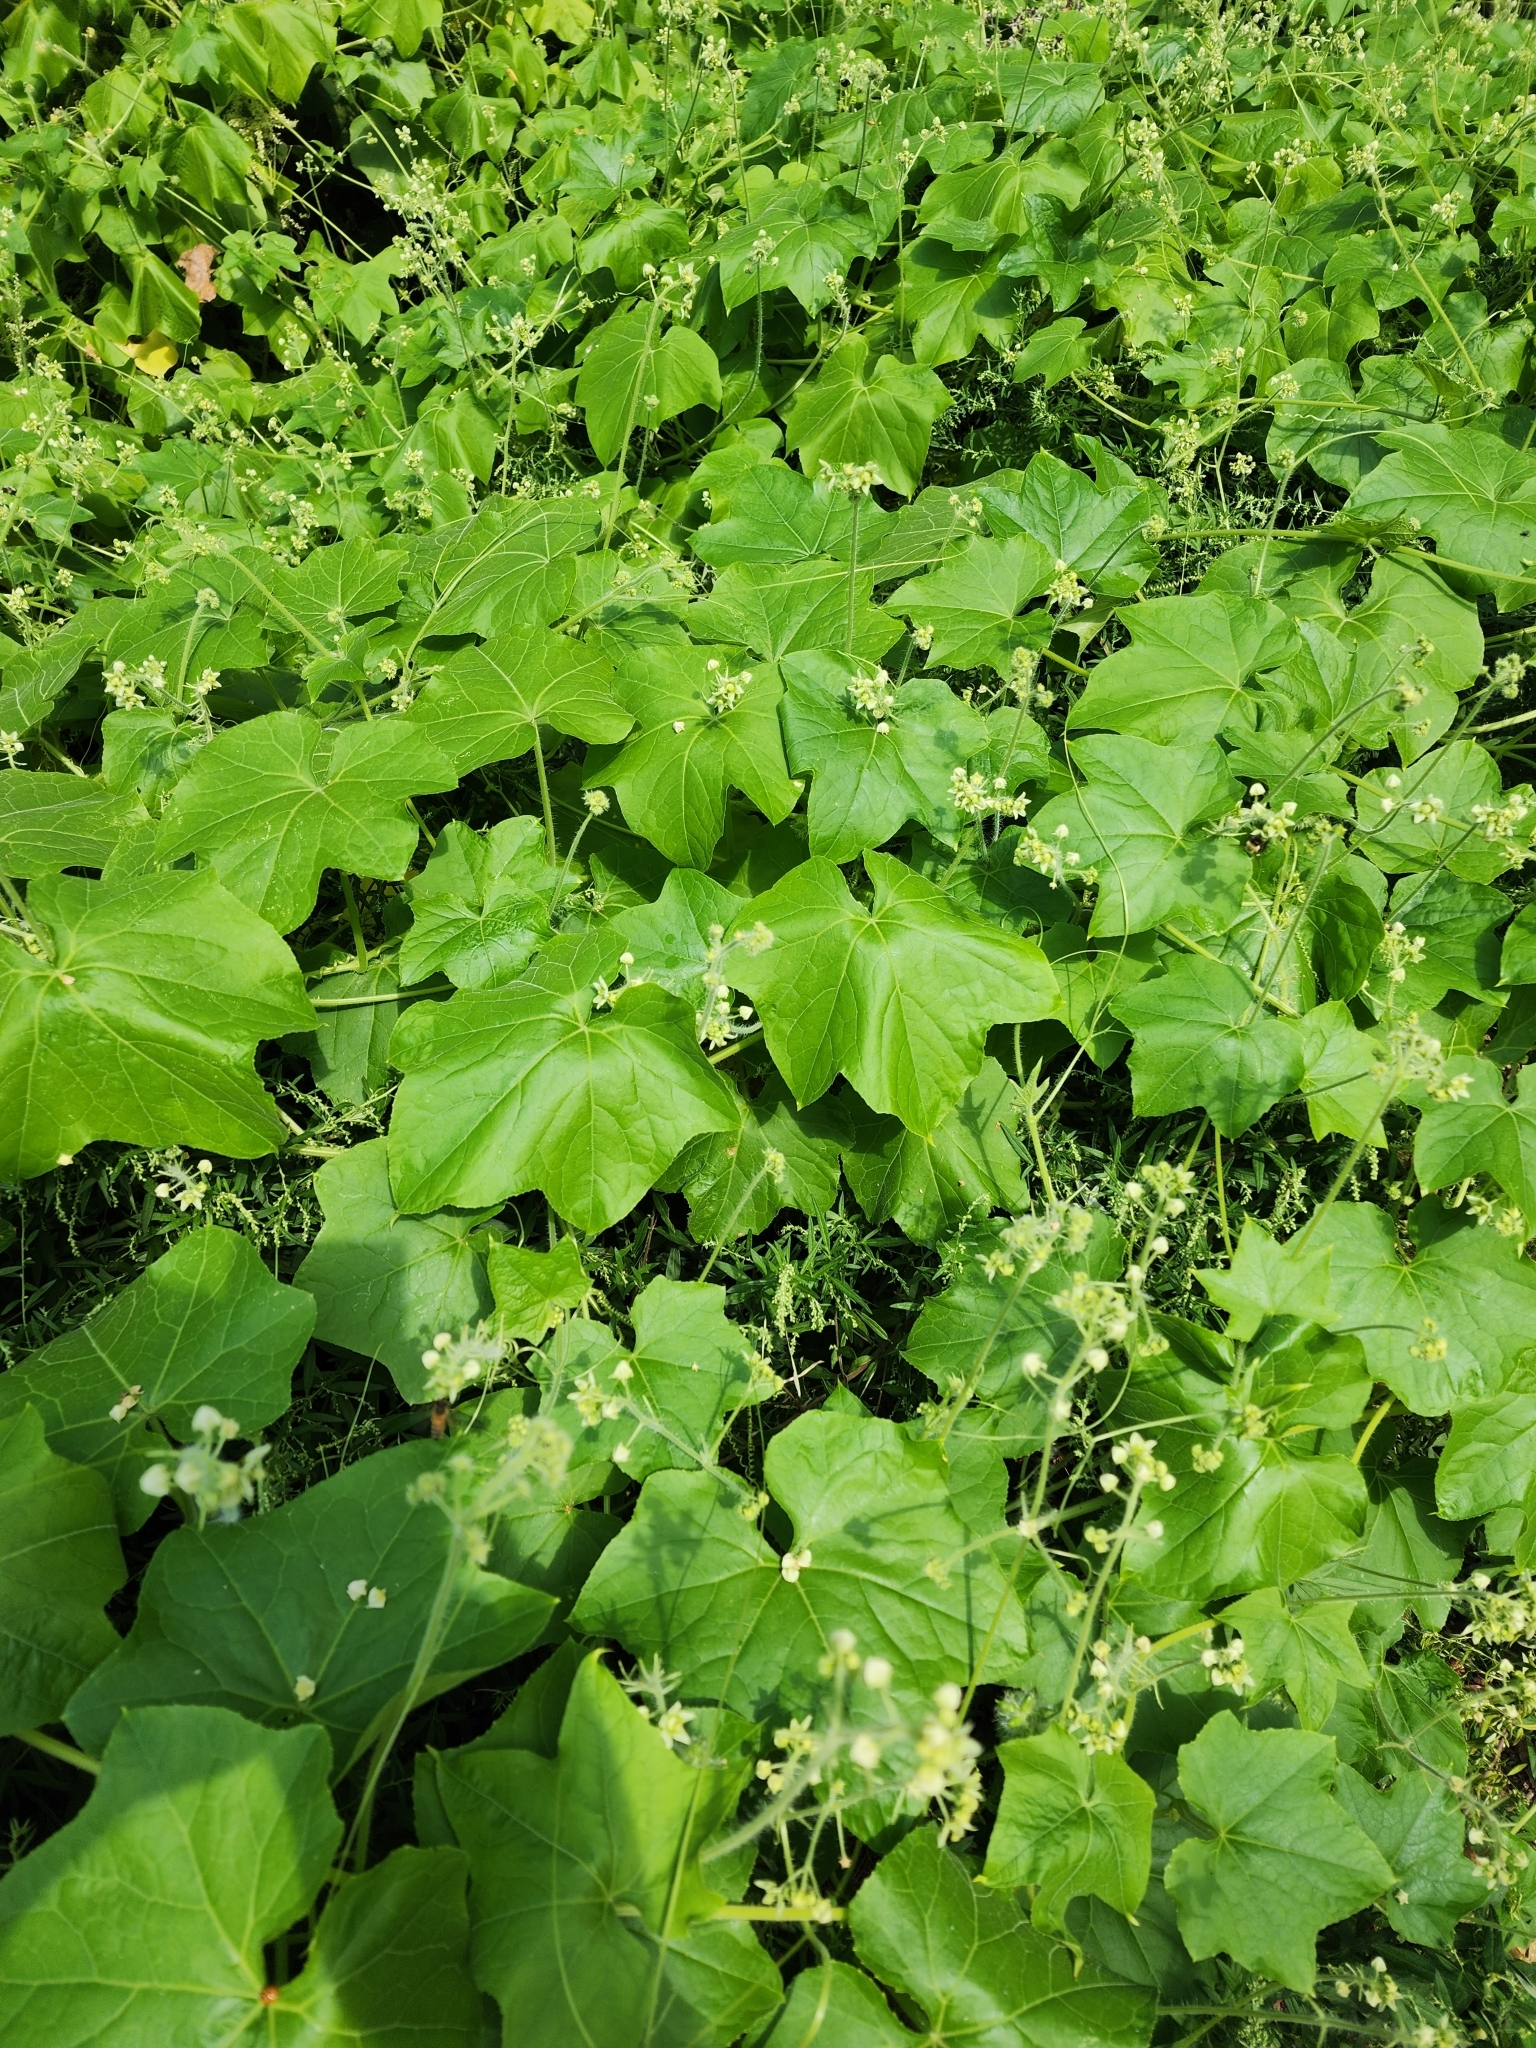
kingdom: Plantae
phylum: Tracheophyta
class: Magnoliopsida
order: Cucurbitales
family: Cucurbitaceae
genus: Sicyos
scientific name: Sicyos angulatus
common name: Angled burr cucumber
